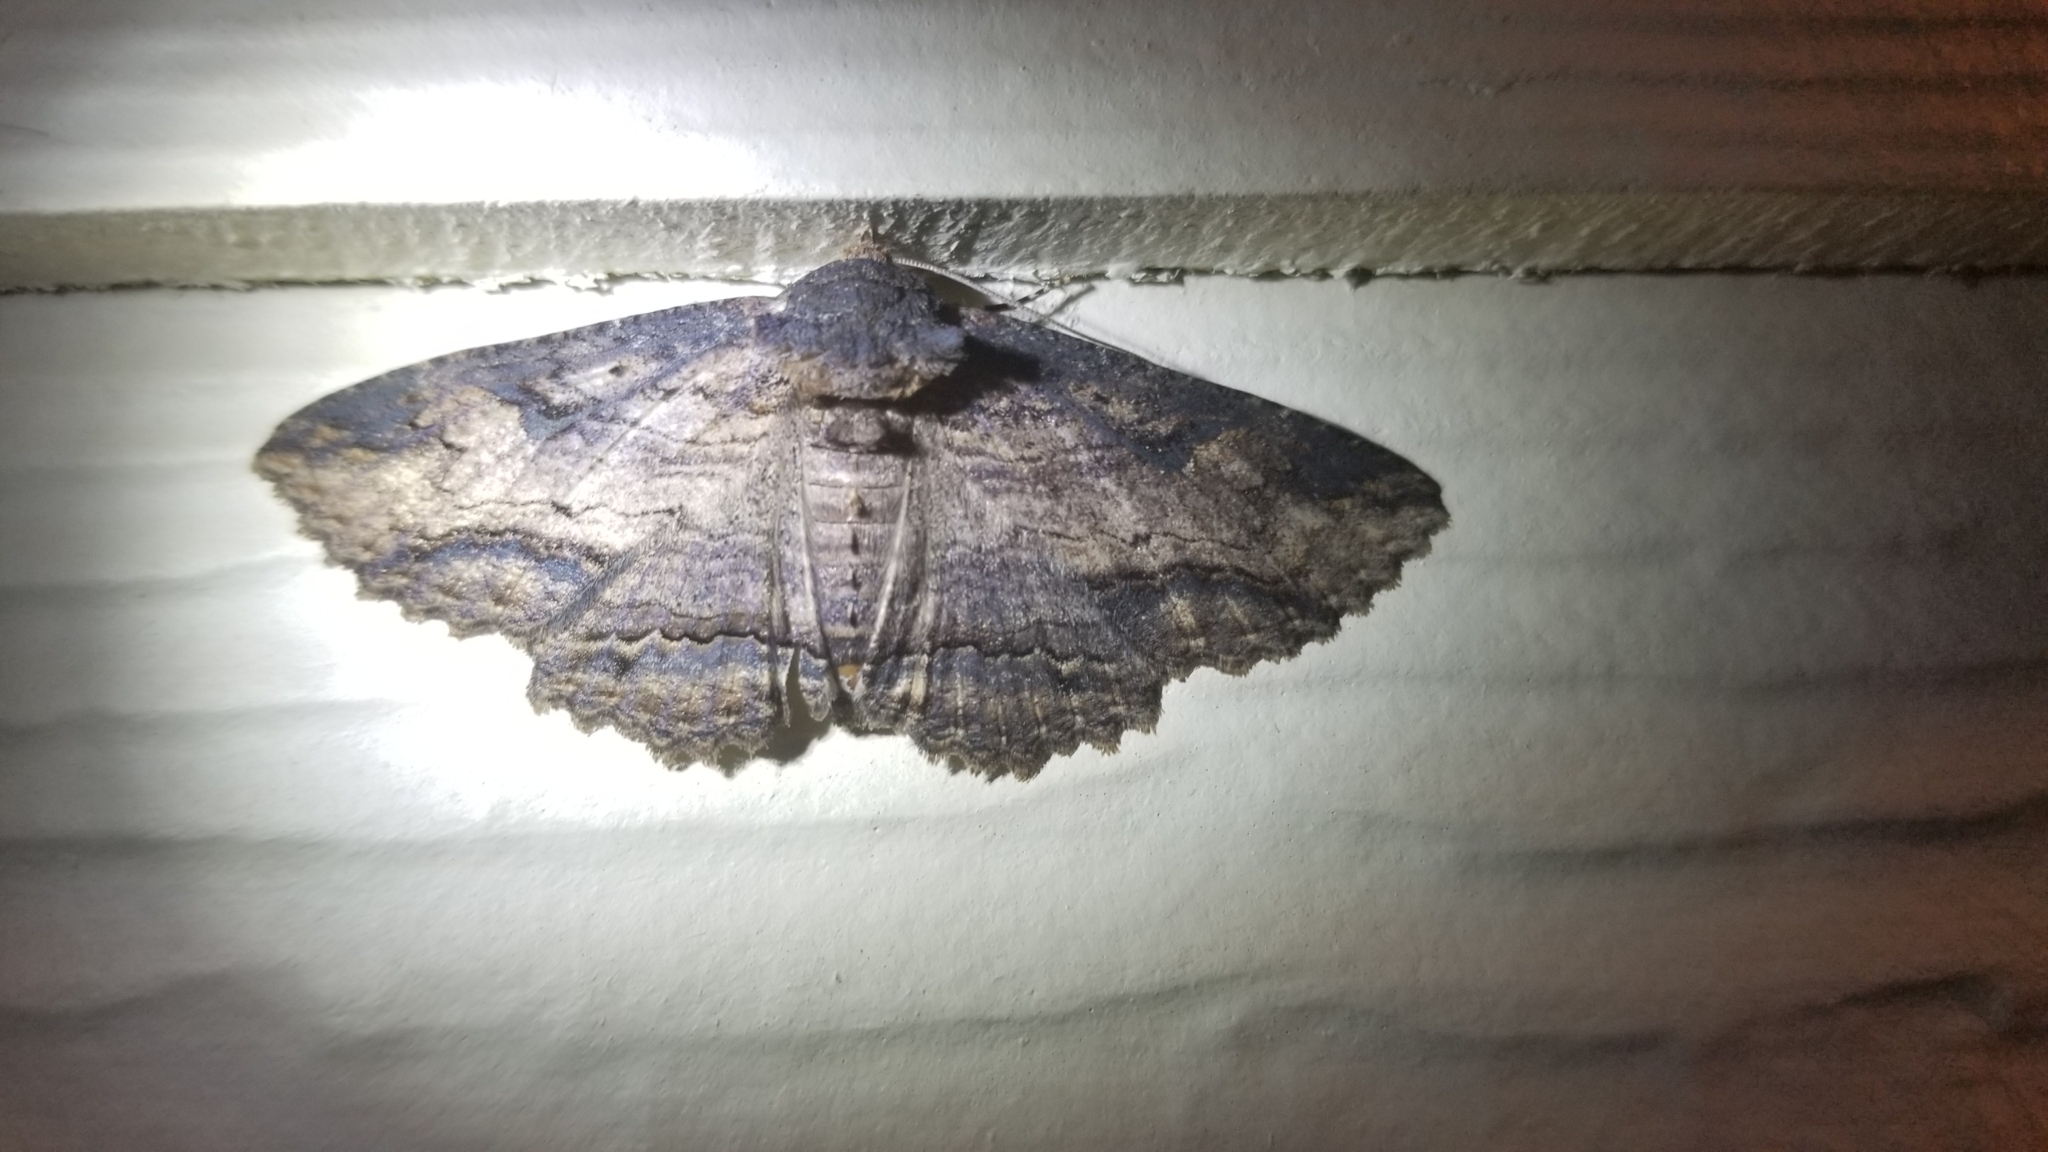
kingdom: Animalia
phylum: Arthropoda
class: Insecta
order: Lepidoptera
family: Erebidae
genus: Zale
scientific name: Zale lunata
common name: Lunate zale moth
